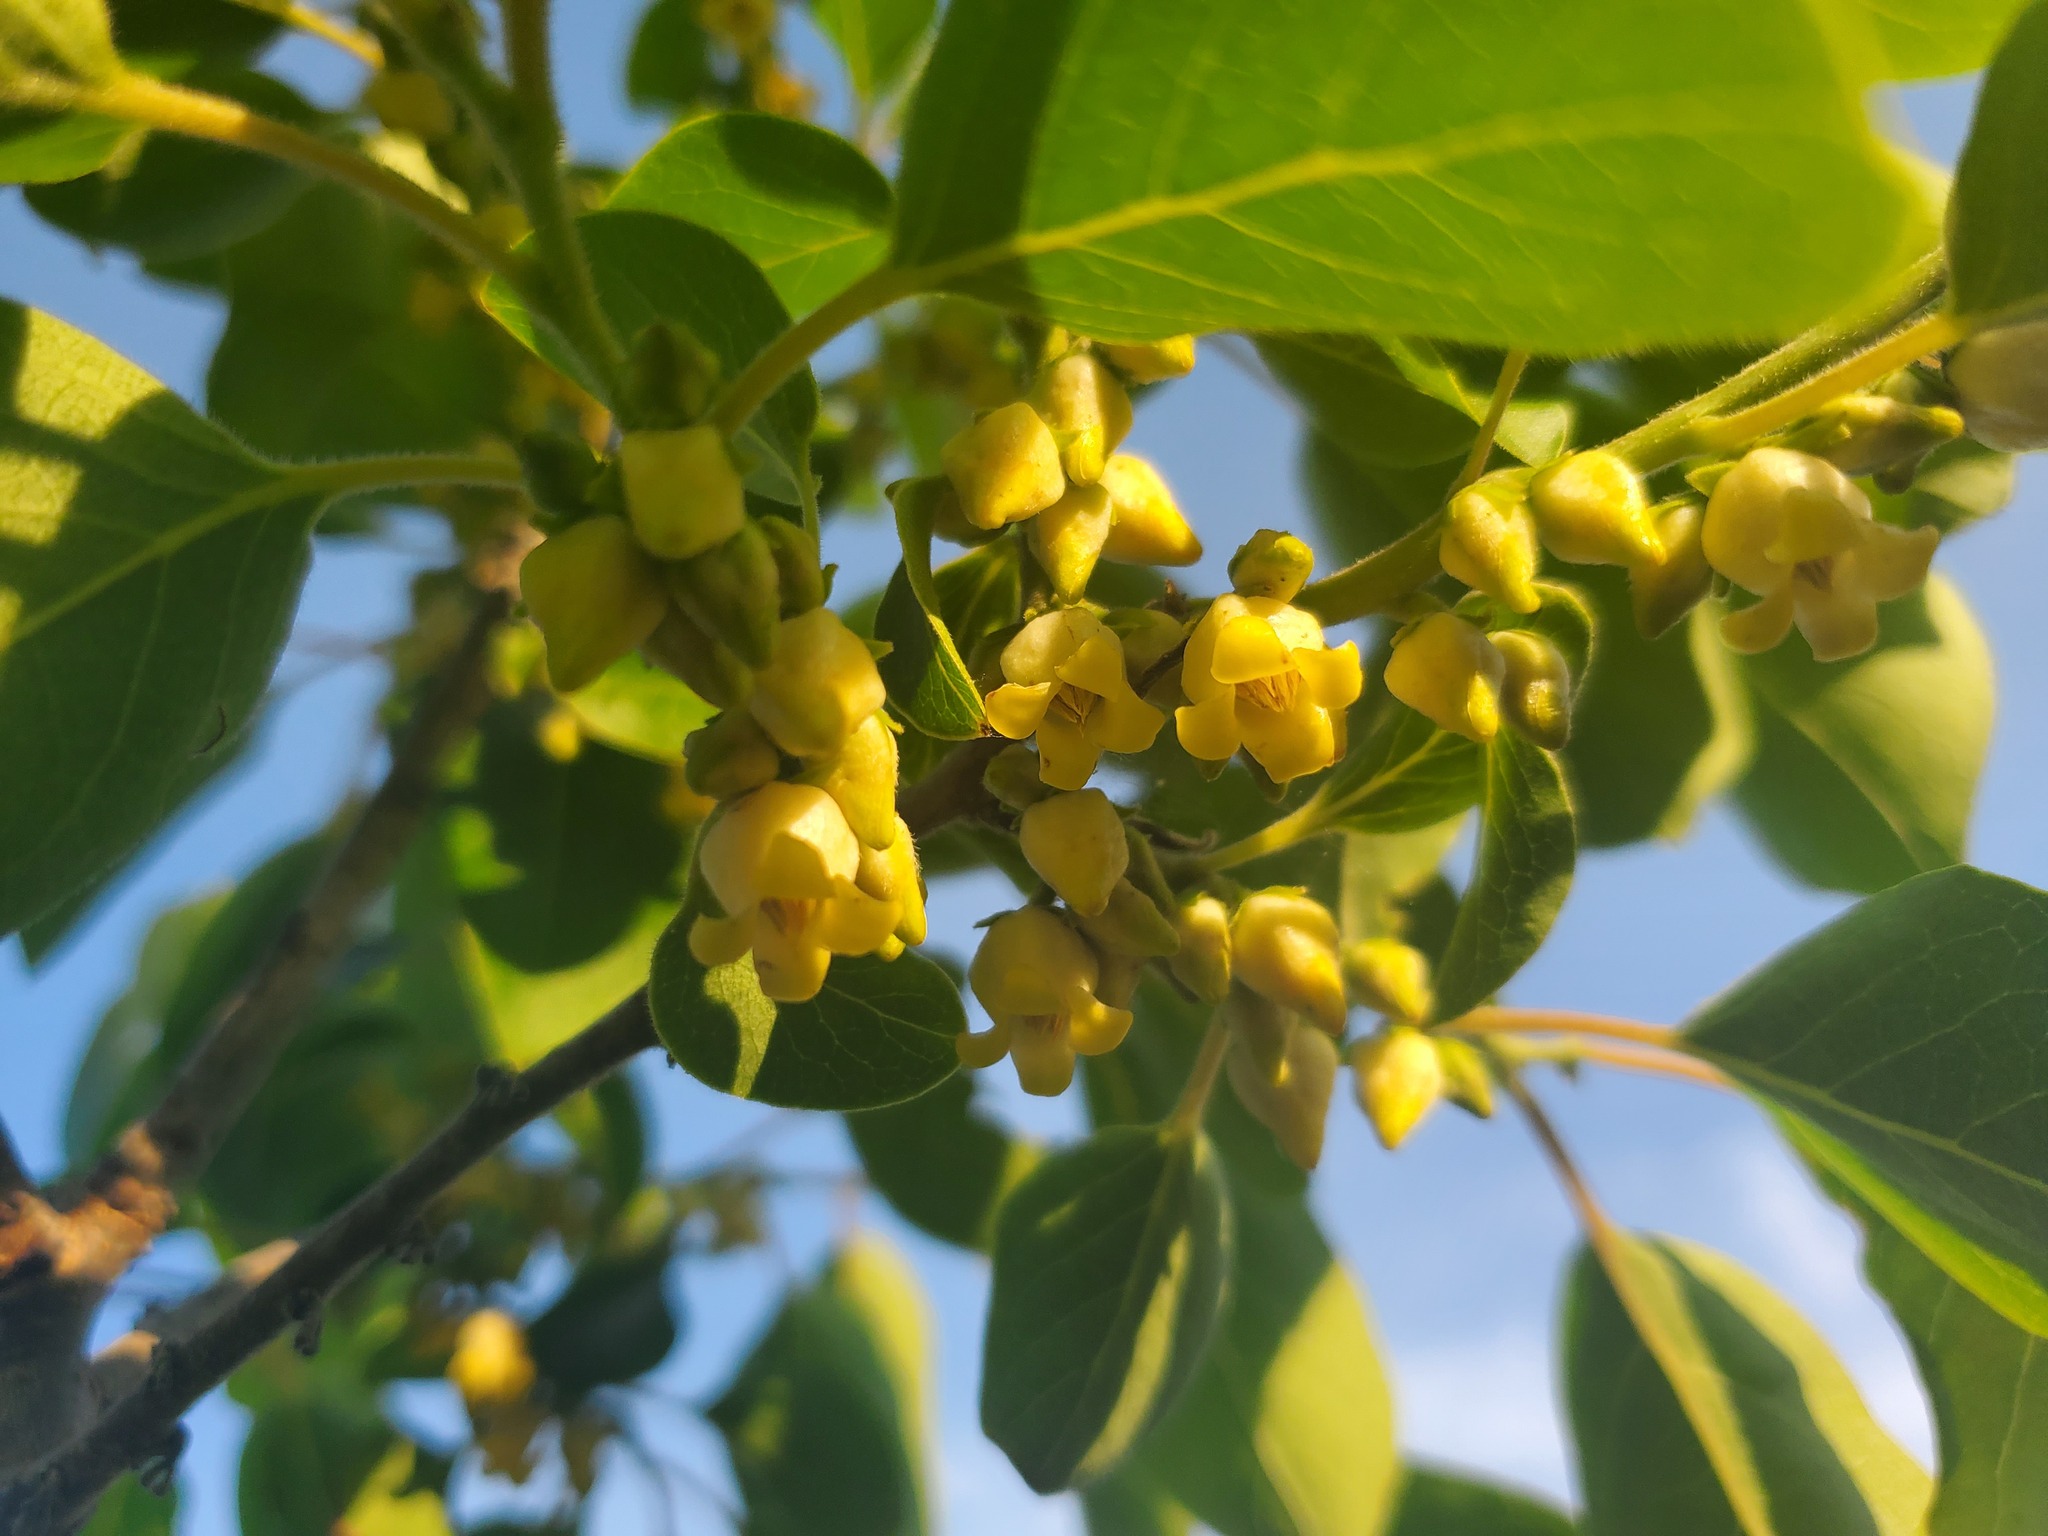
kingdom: Plantae
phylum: Tracheophyta
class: Magnoliopsida
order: Ericales
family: Ebenaceae
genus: Diospyros
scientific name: Diospyros virginiana
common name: Persimmon
